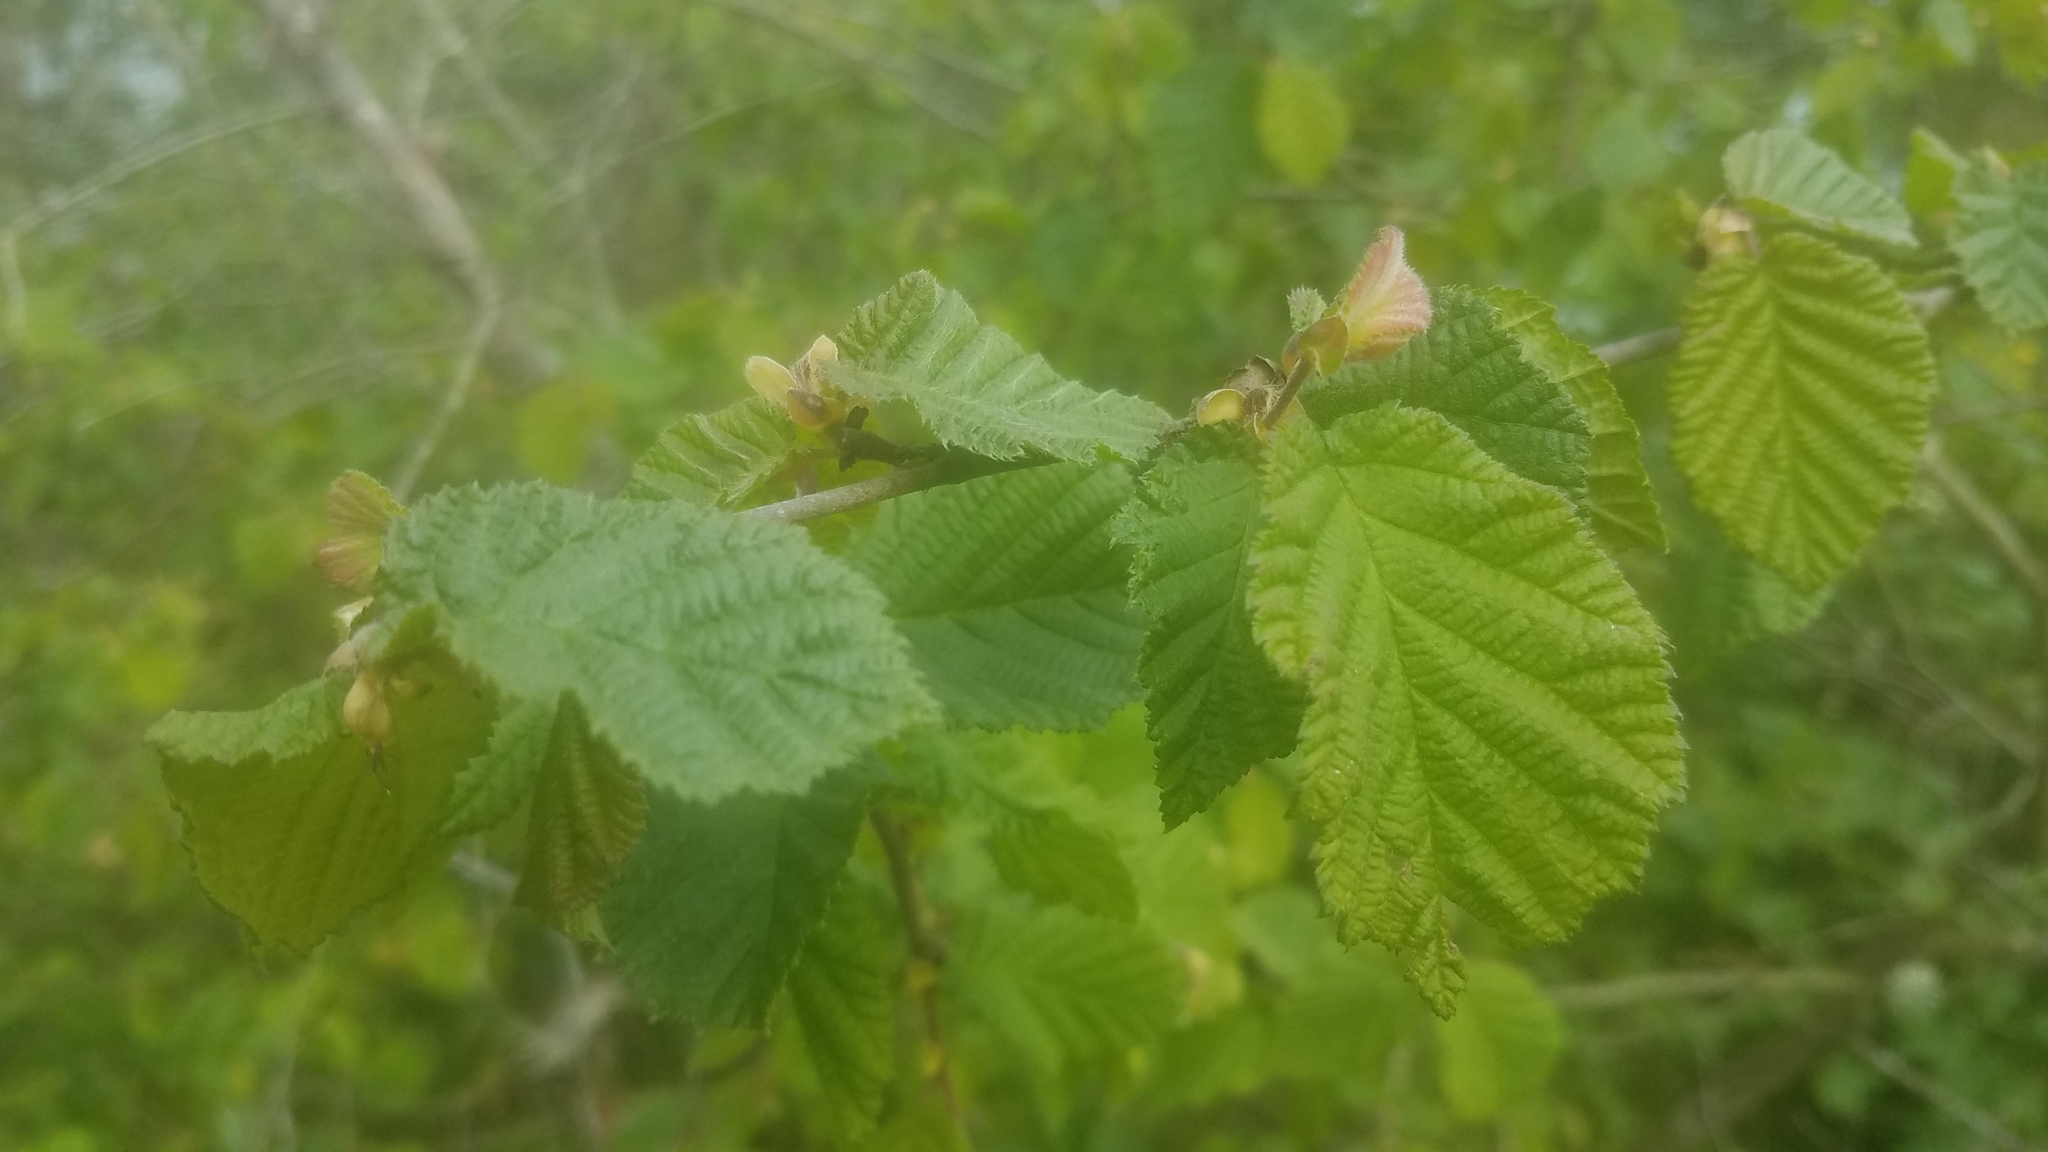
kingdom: Plantae
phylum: Tracheophyta
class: Magnoliopsida
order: Fagales
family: Betulaceae
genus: Corylus
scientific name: Corylus cornuta
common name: Beaked hazel
